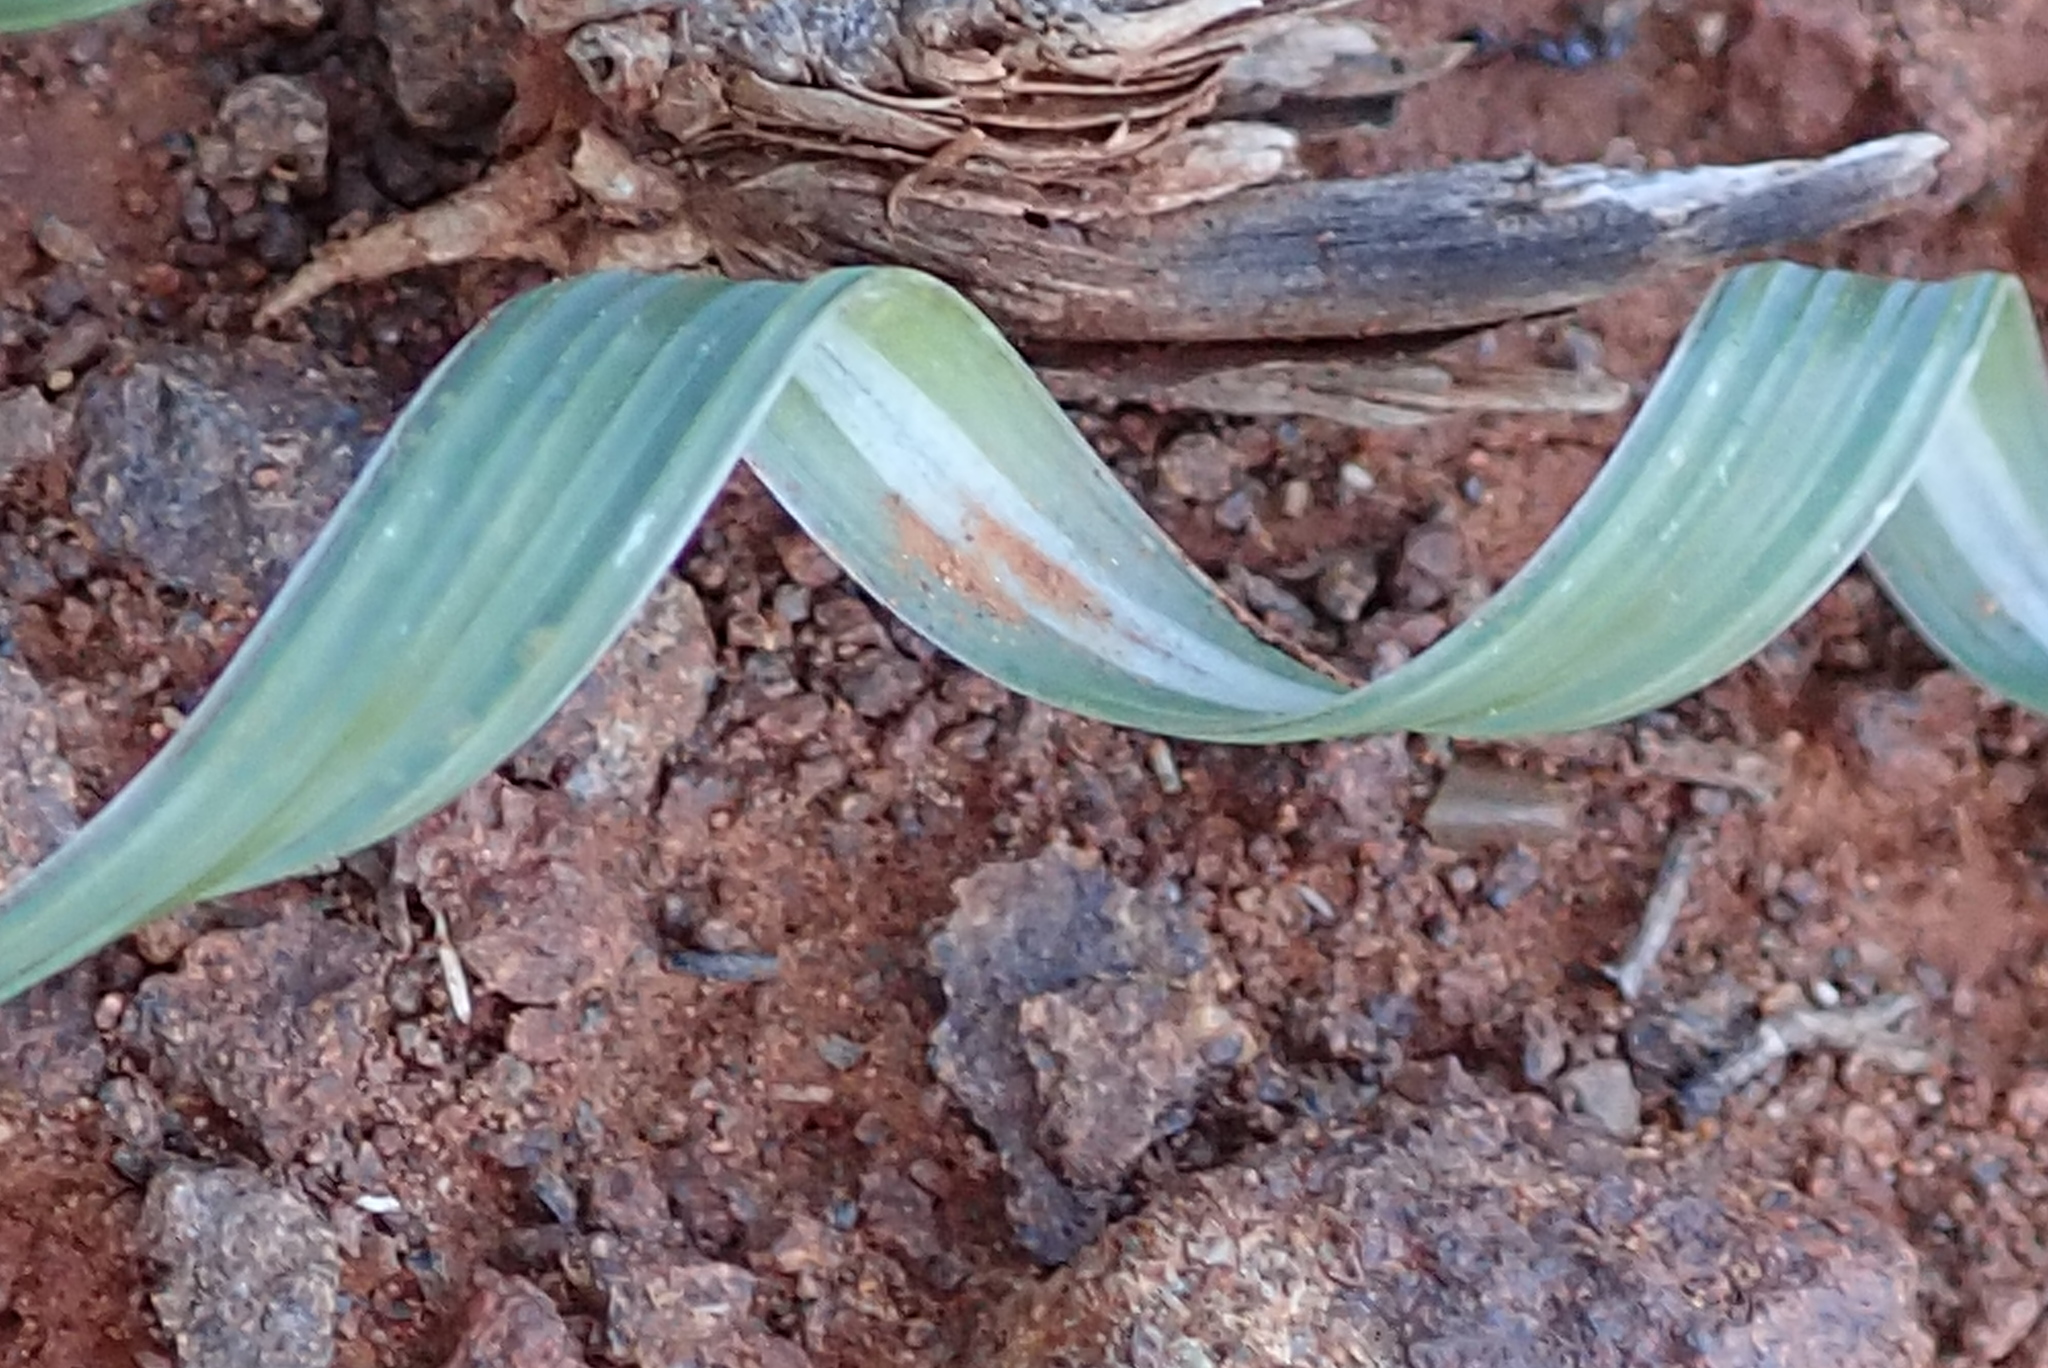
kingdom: Plantae
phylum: Tracheophyta
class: Liliopsida
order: Asparagales
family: Iridaceae
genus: Moraea
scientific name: Moraea pritzeliana
